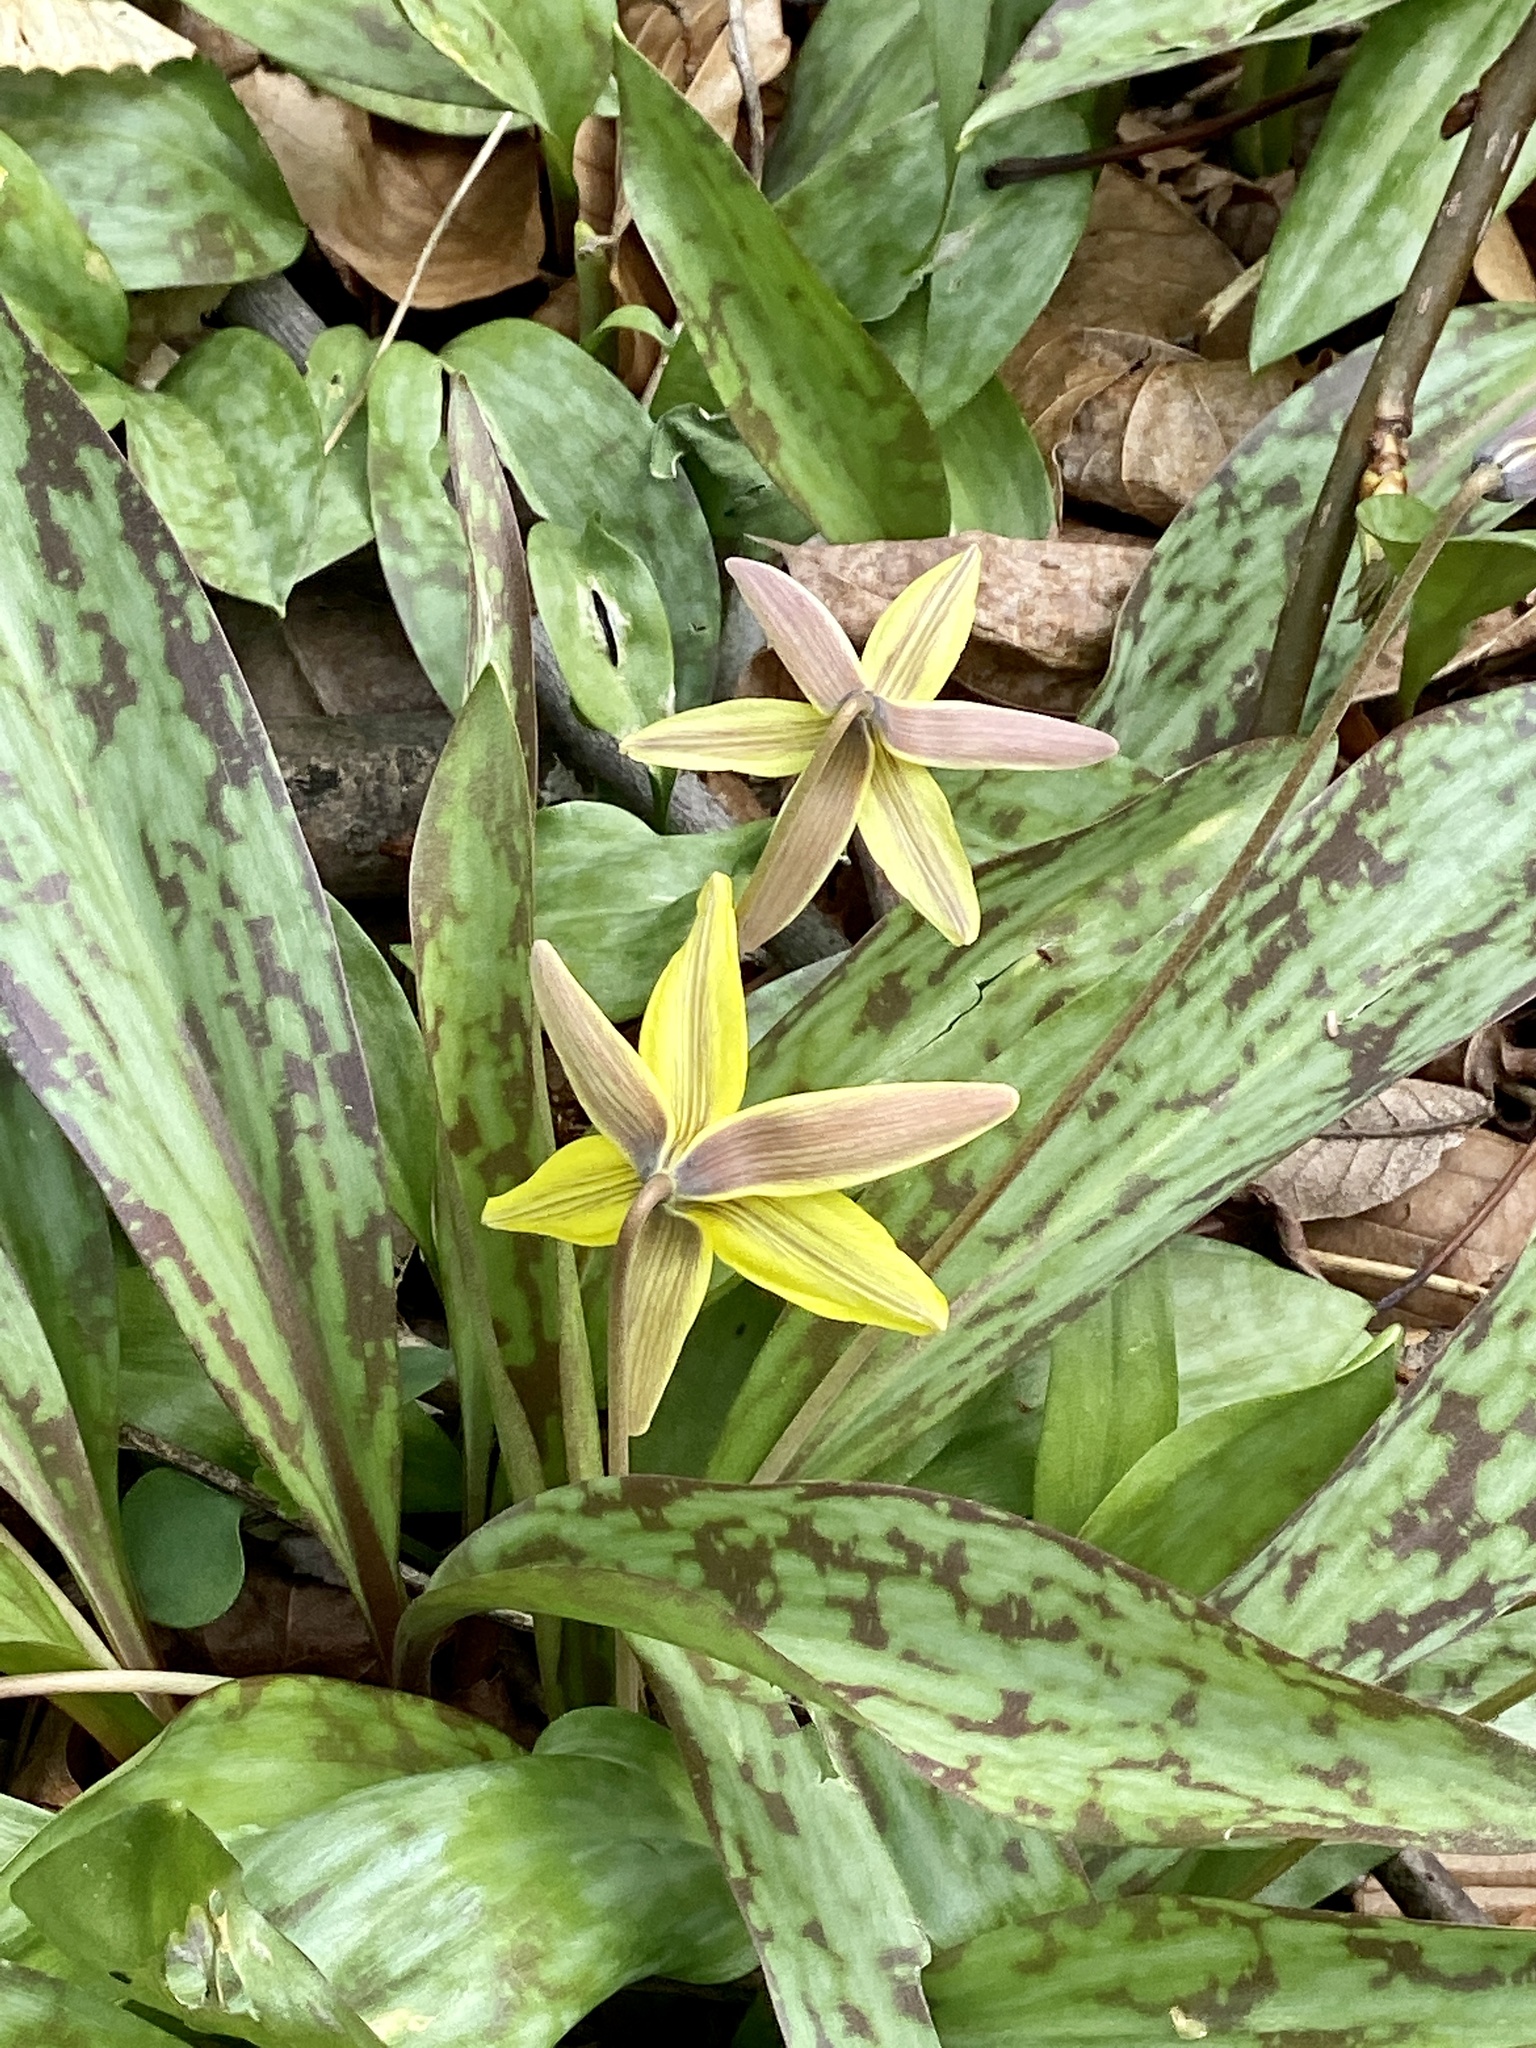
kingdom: Plantae
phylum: Tracheophyta
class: Liliopsida
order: Liliales
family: Liliaceae
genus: Erythronium
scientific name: Erythronium americanum
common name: Yellow adder's-tongue
